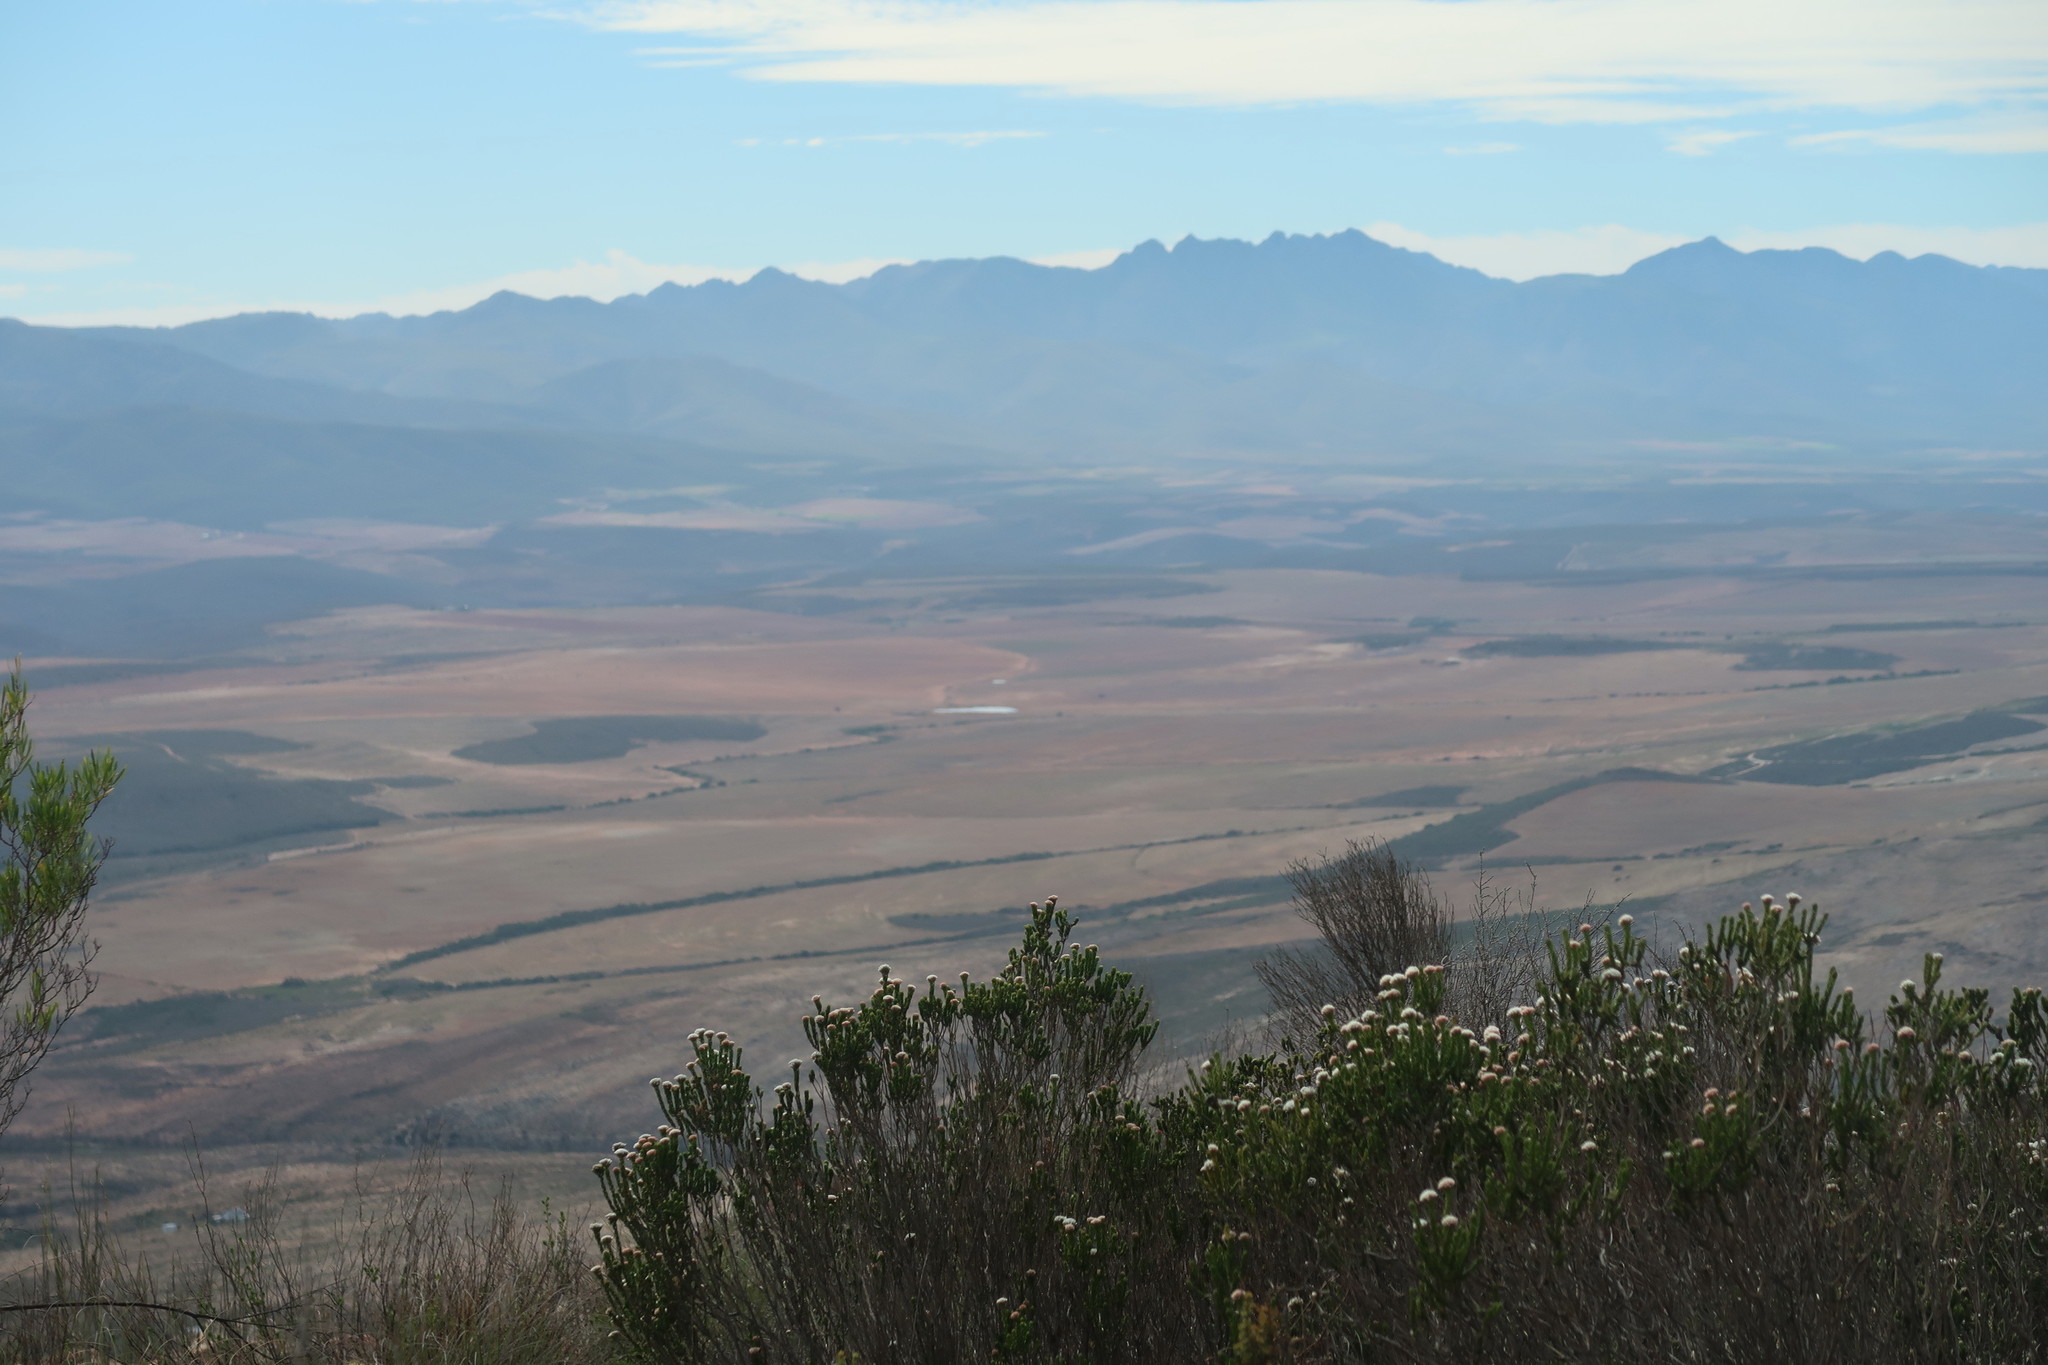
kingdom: Plantae
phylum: Tracheophyta
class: Magnoliopsida
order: Asterales
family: Asteraceae
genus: Metalasia
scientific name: Metalasia pulcherrima
